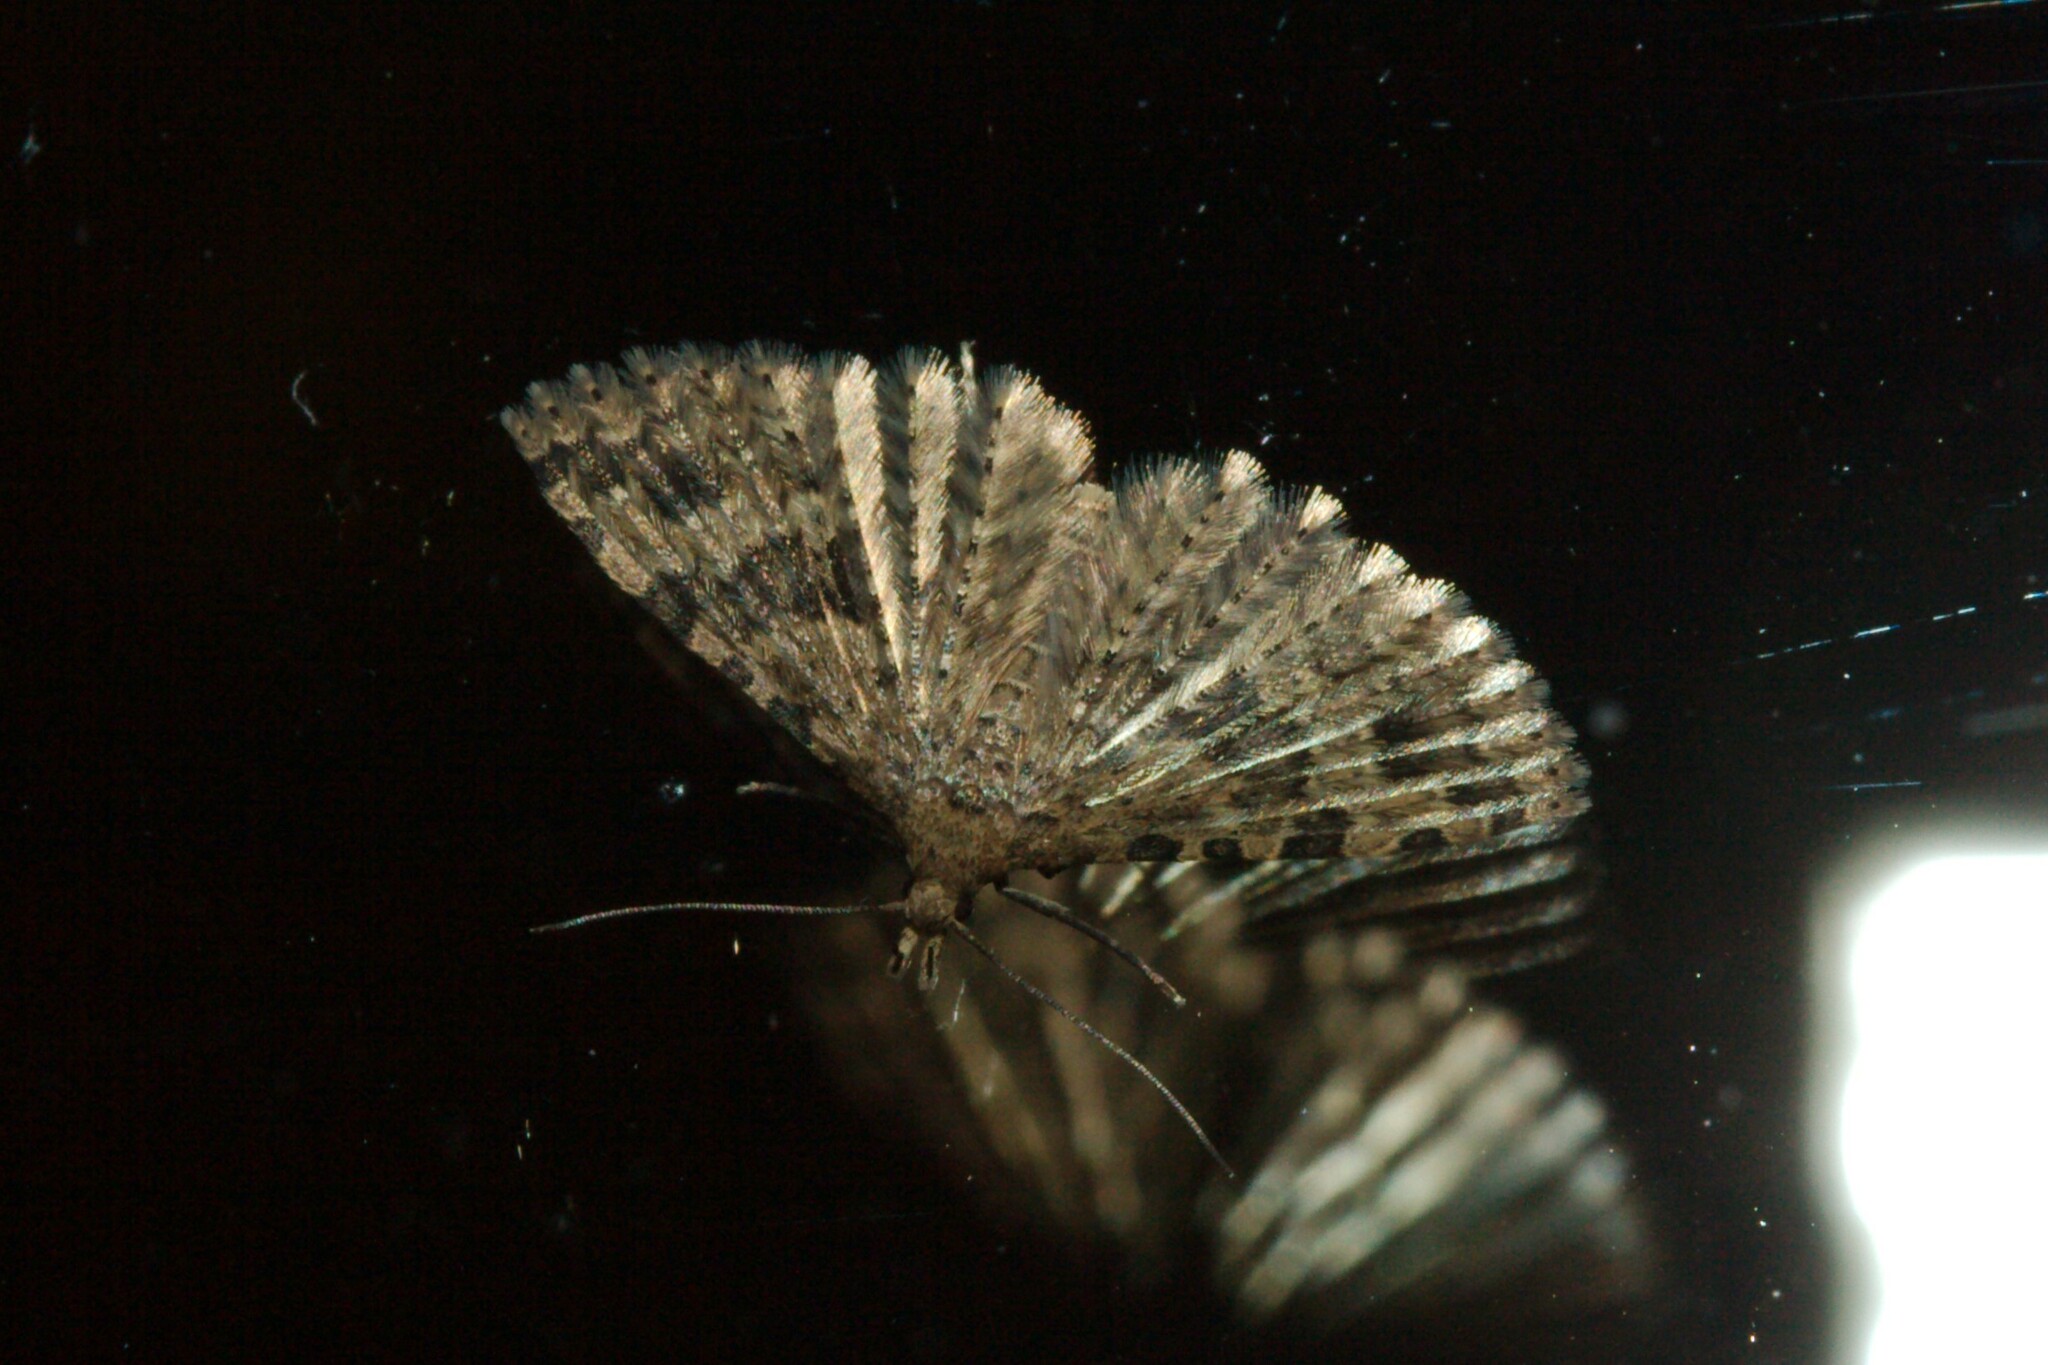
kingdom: Animalia
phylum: Arthropoda
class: Insecta
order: Lepidoptera
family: Alucitidae
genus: Alucita
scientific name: Alucita hexadactyla
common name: Twenty-plume moth
